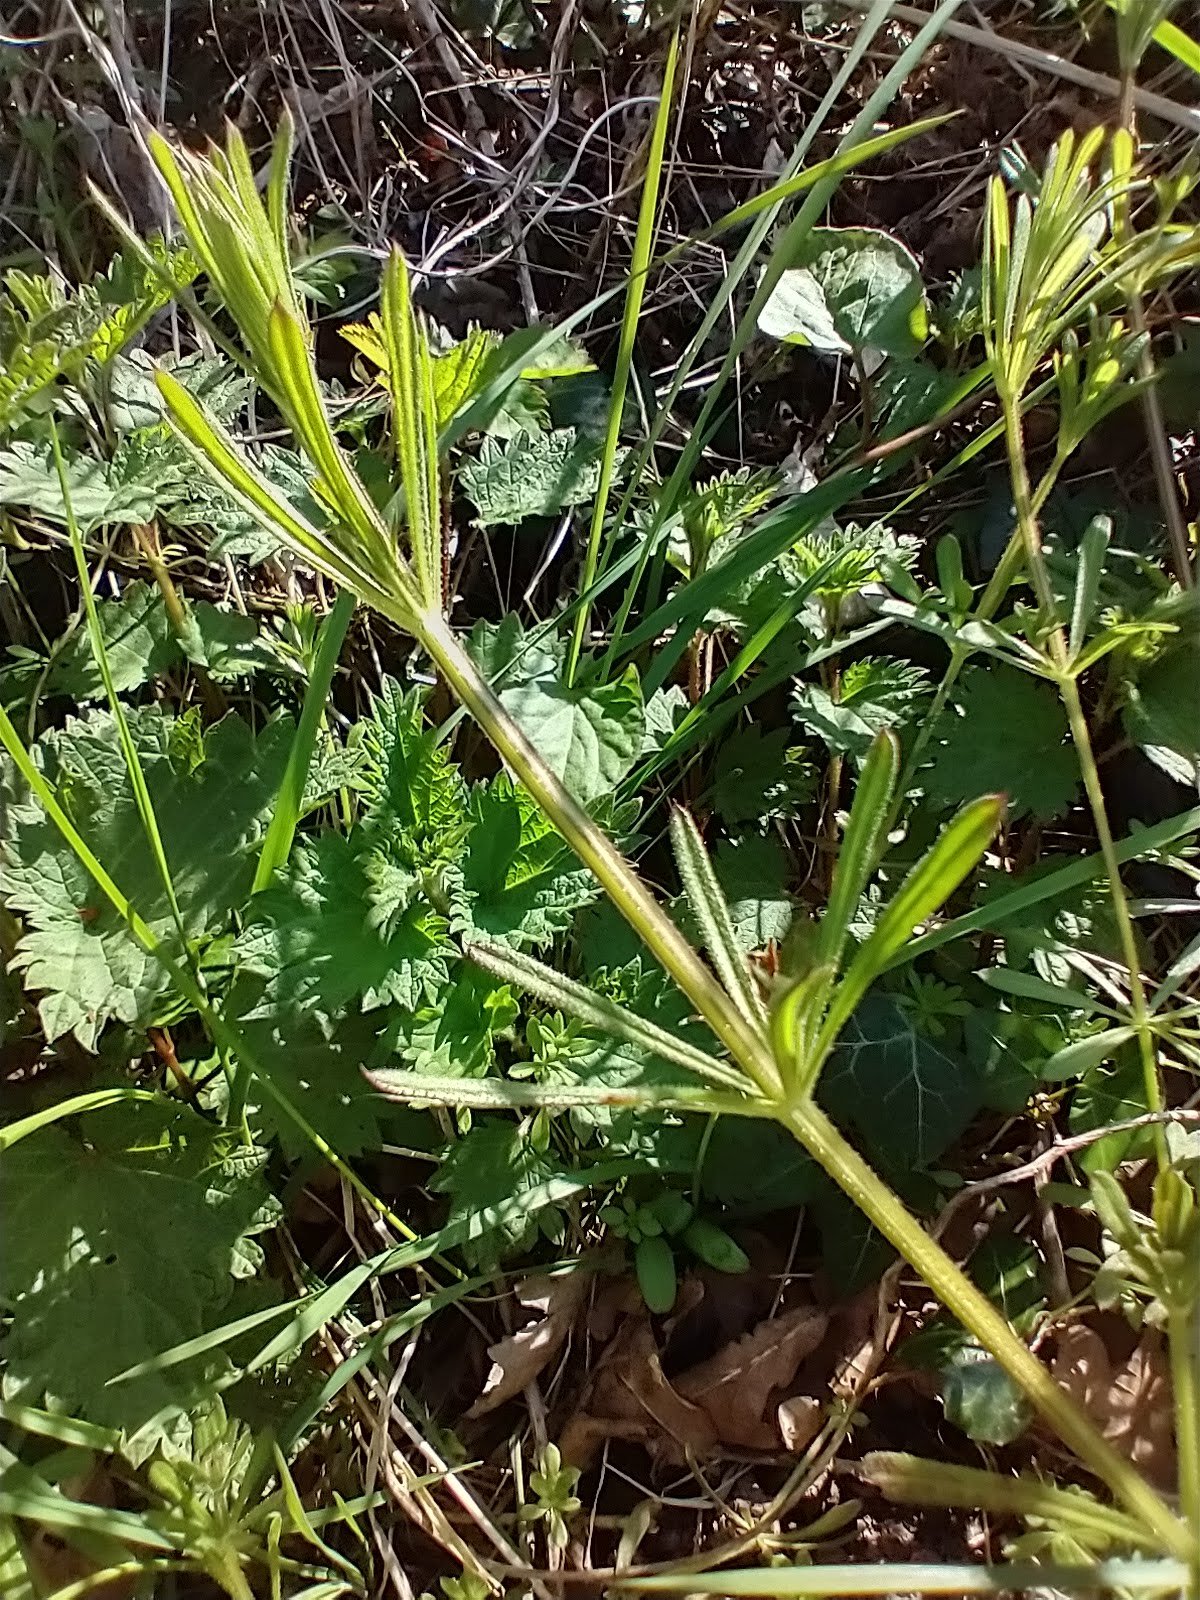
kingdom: Plantae
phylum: Tracheophyta
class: Magnoliopsida
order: Gentianales
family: Rubiaceae
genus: Galium
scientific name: Galium aparine
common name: Cleavers
